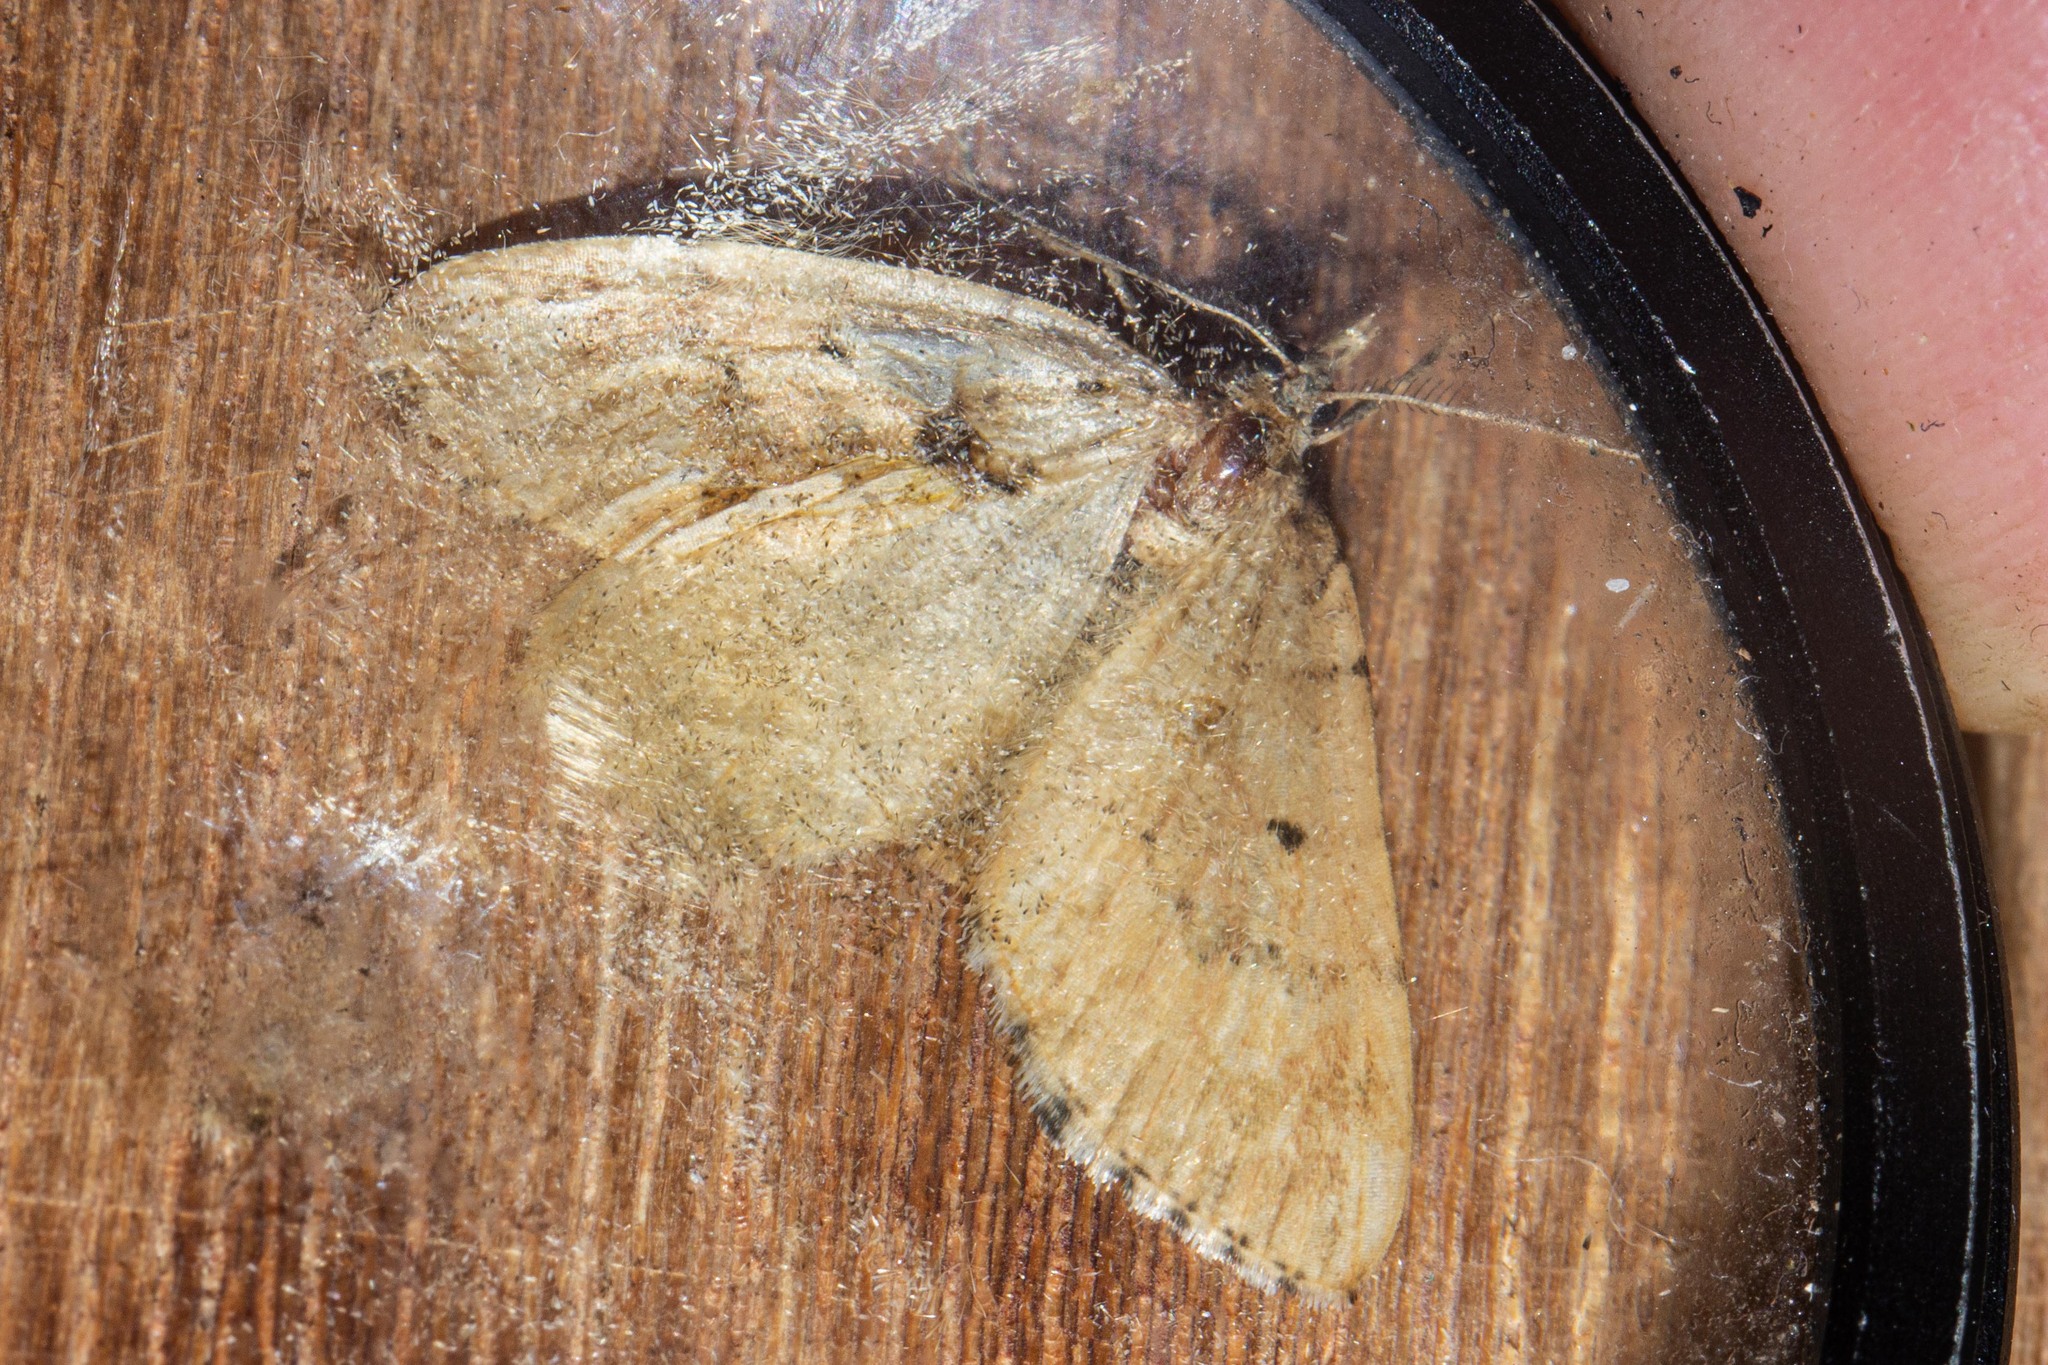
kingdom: Animalia
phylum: Arthropoda
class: Insecta
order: Lepidoptera
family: Geometridae
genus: Asaphodes
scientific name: Asaphodes aegrota
